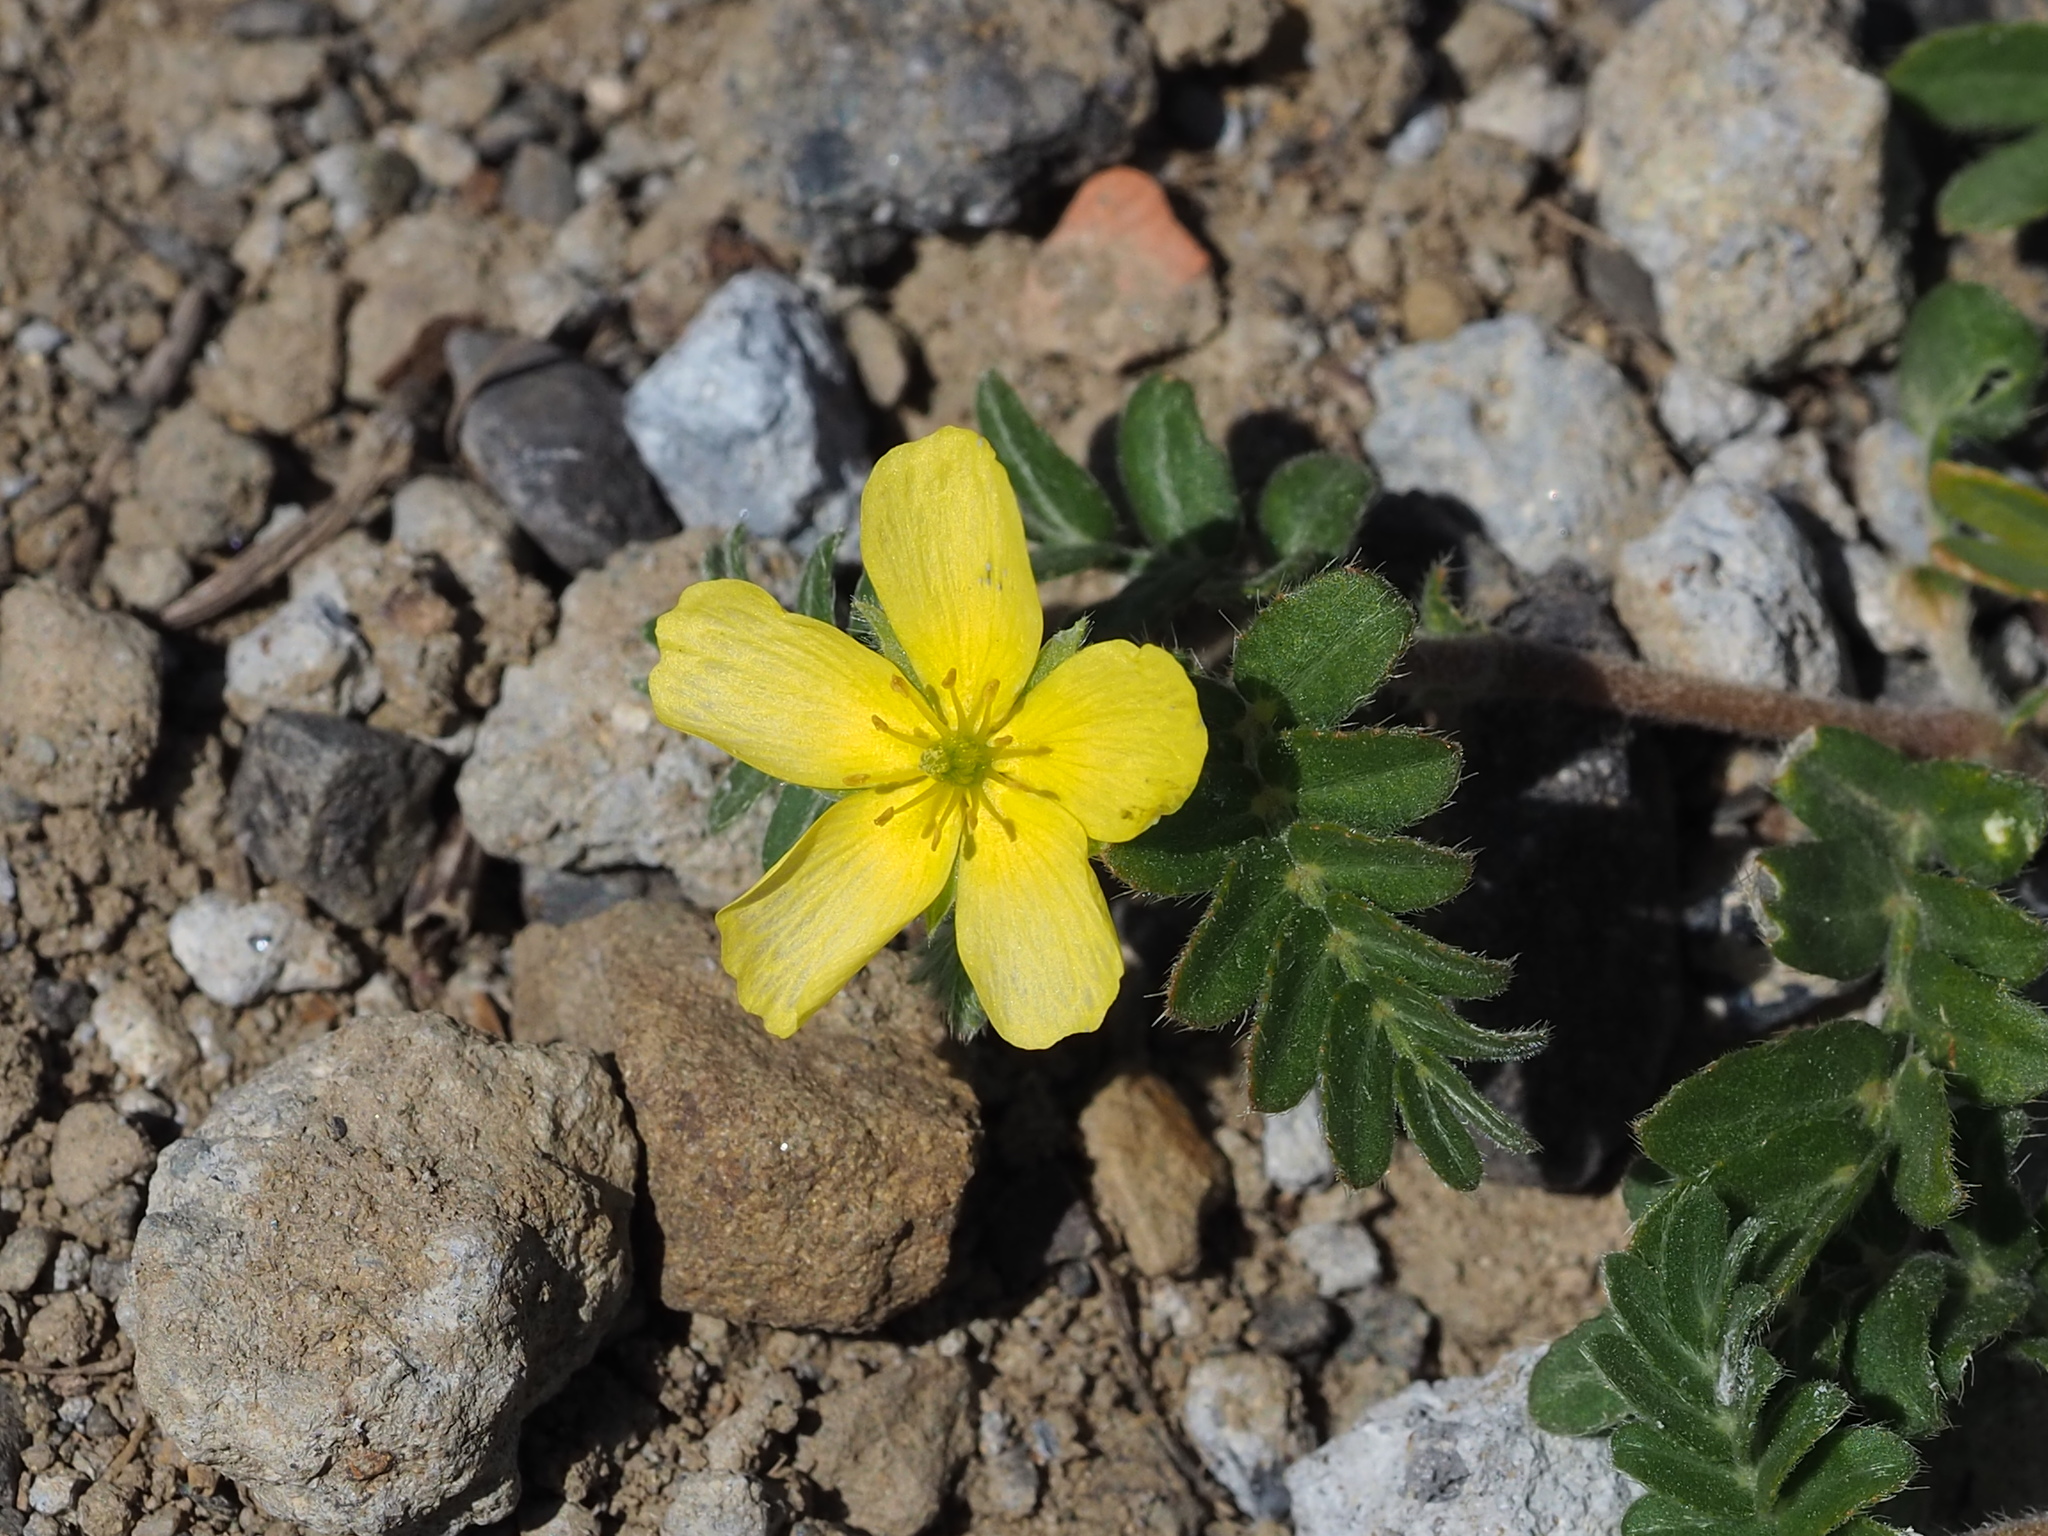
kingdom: Plantae
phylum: Tracheophyta
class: Magnoliopsida
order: Zygophyllales
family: Zygophyllaceae
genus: Tribulus
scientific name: Tribulus cistoides
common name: Jamaican feverplant
